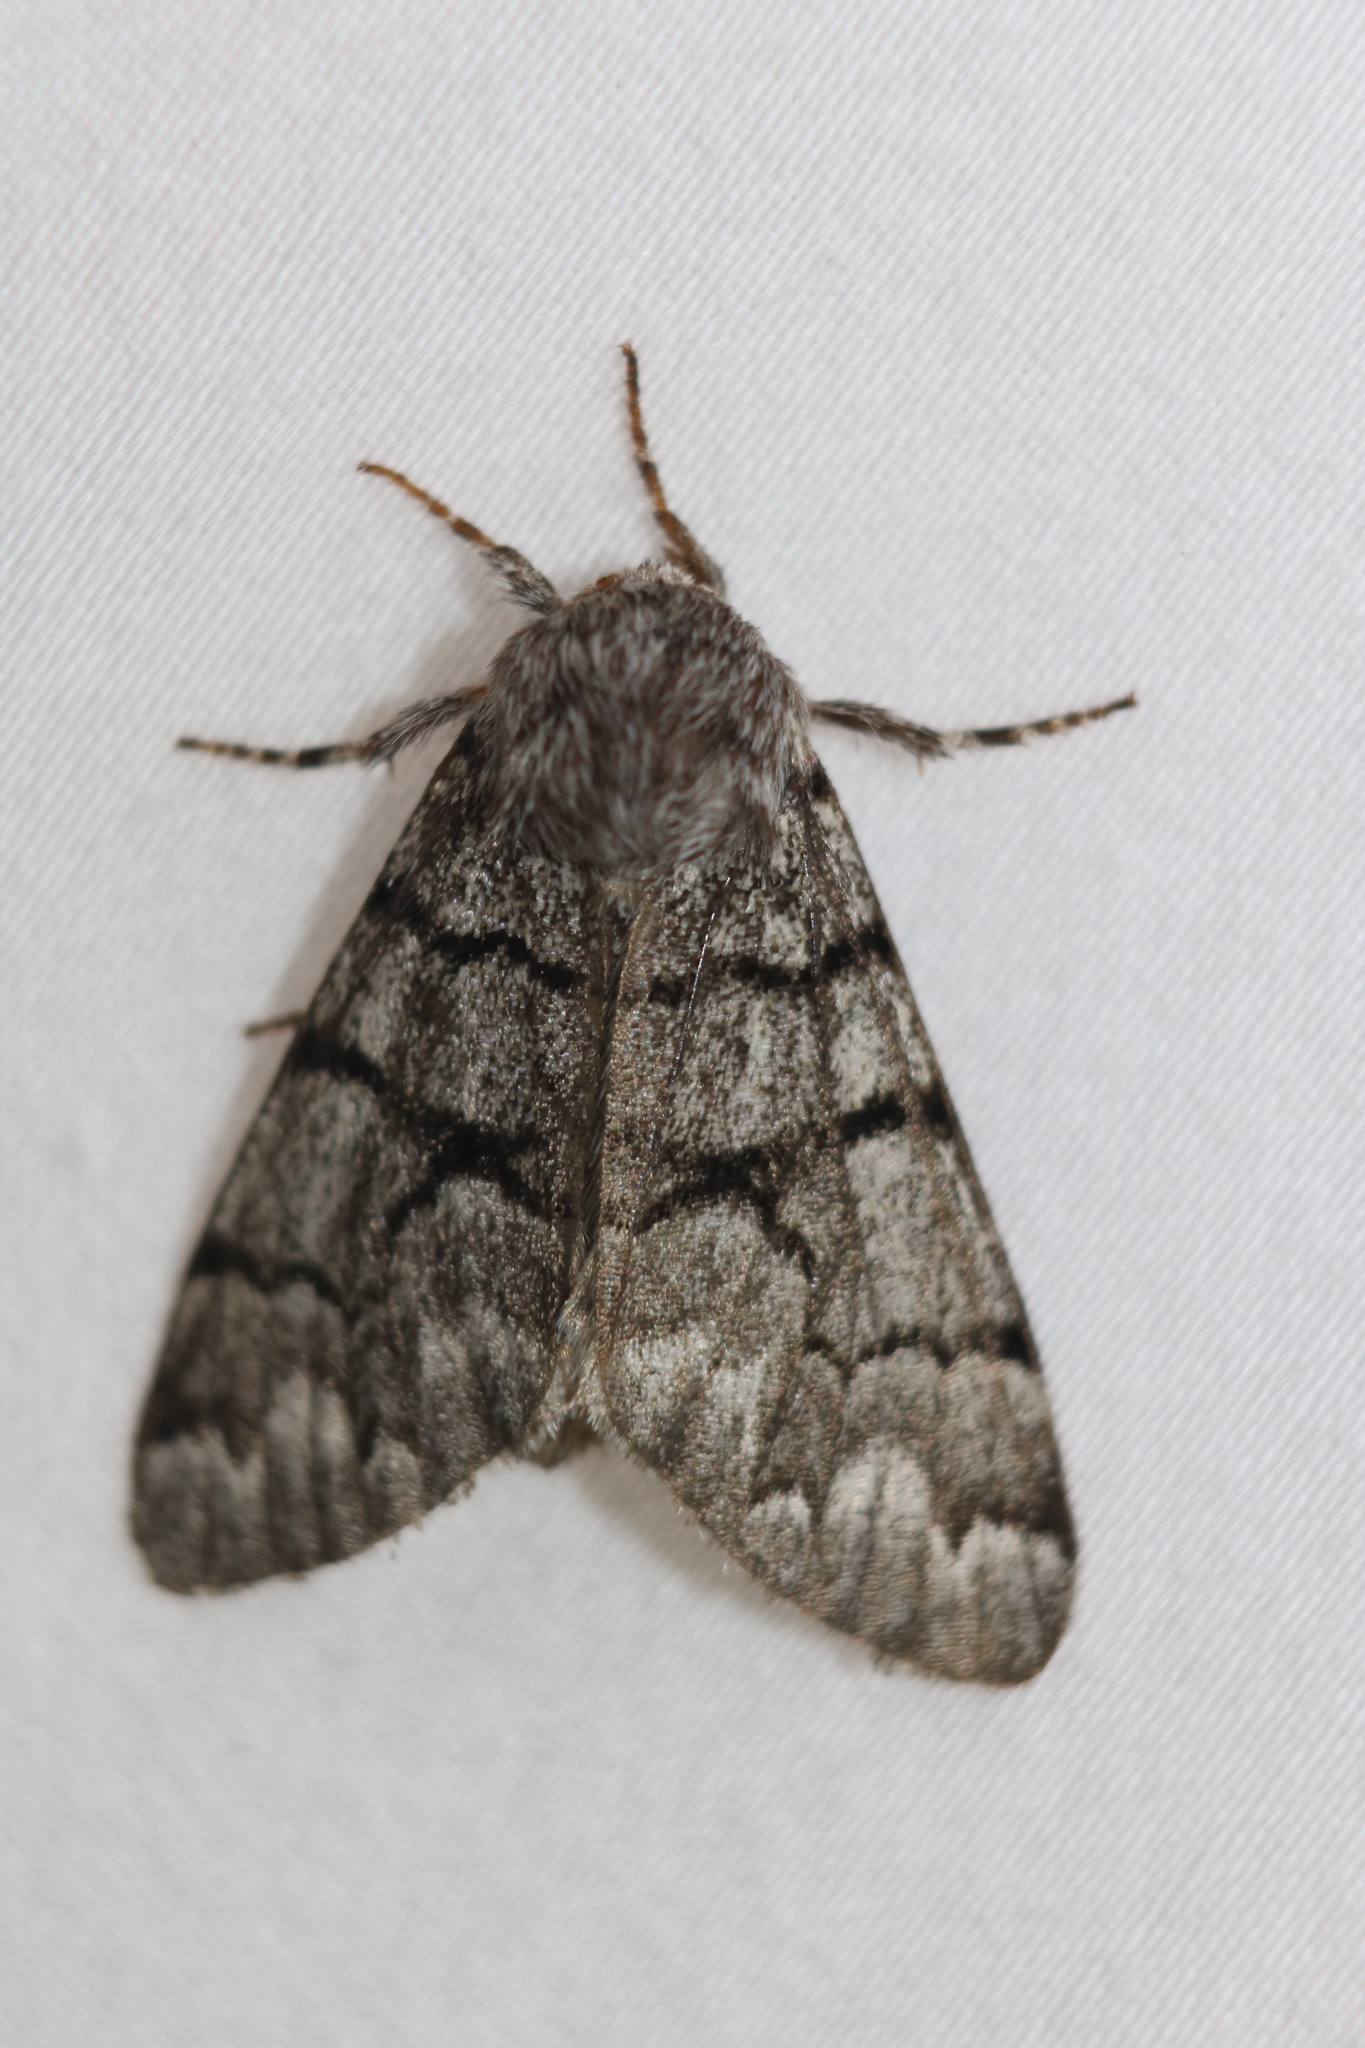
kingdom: Animalia
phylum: Arthropoda
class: Insecta
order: Lepidoptera
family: Noctuidae
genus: Panthea
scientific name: Panthea furcilla
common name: Eastern panthea moth
